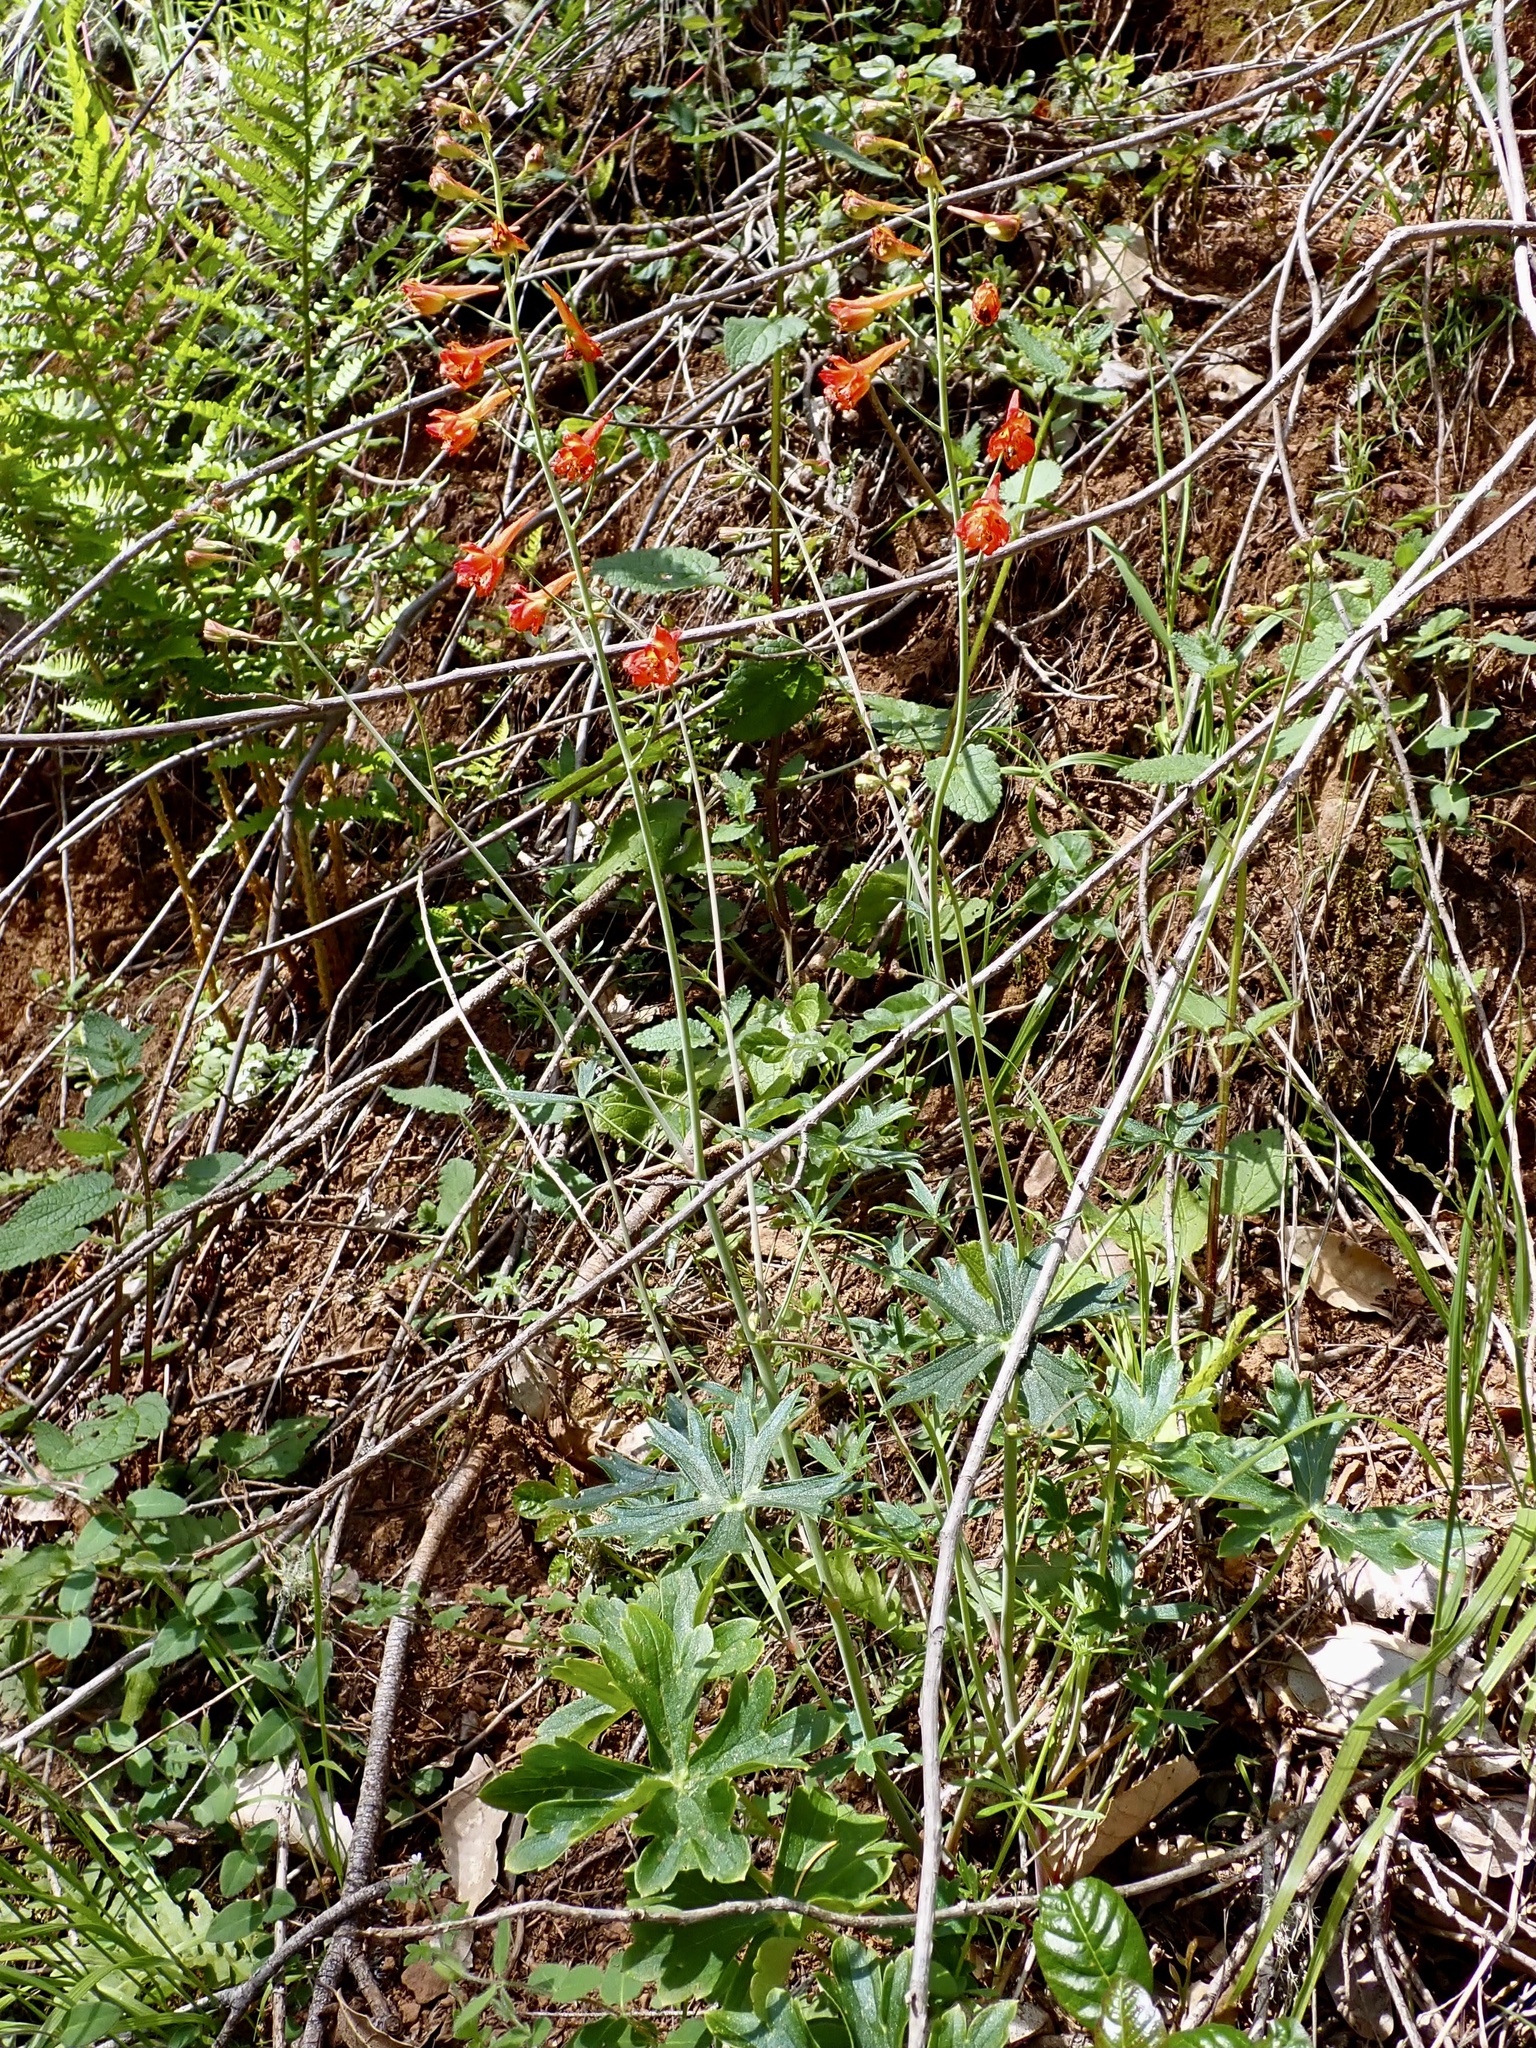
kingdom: Plantae
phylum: Tracheophyta
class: Magnoliopsida
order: Ranunculales
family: Ranunculaceae
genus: Delphinium
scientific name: Delphinium nudicaule
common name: Red larkspur
